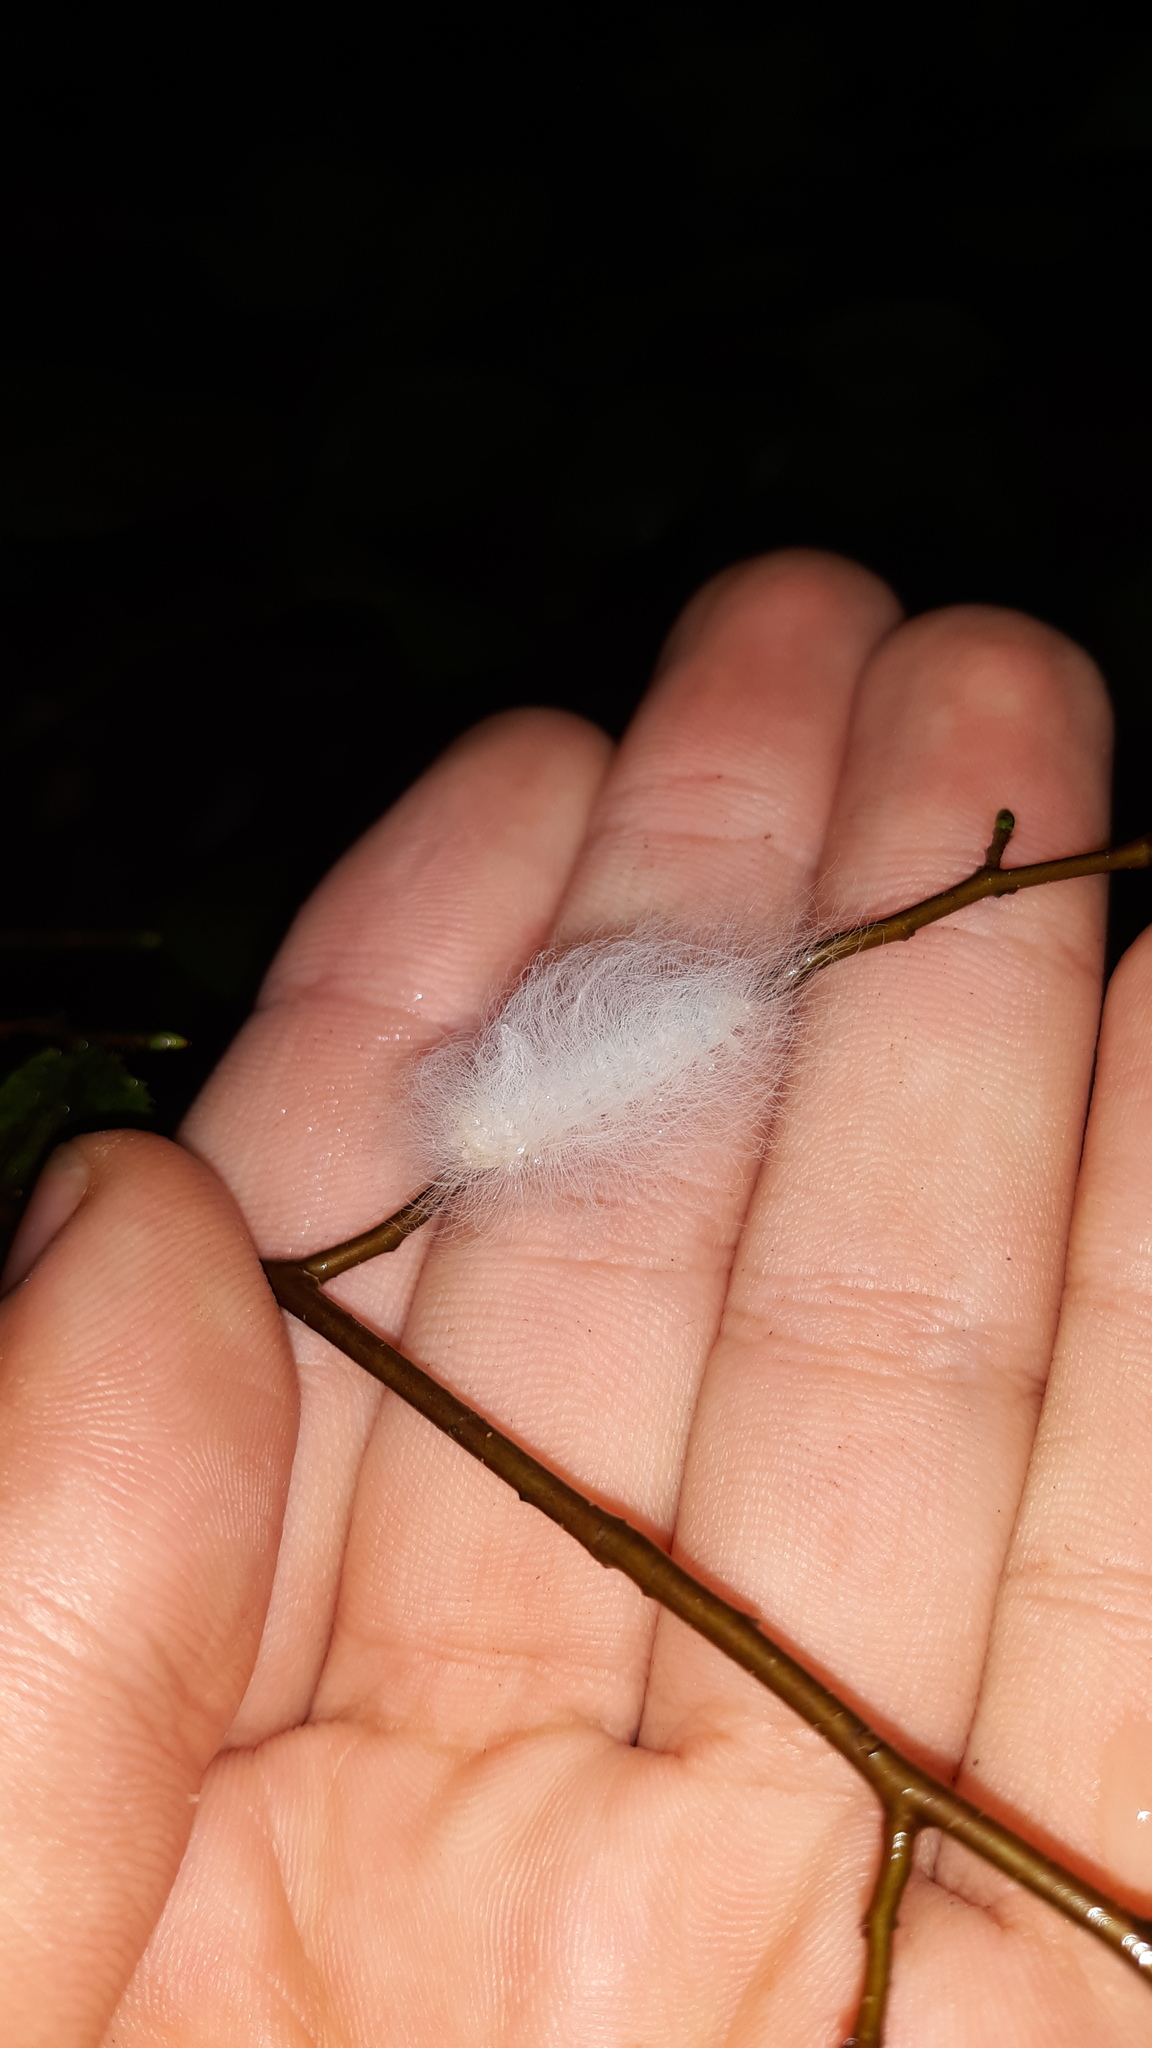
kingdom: Animalia
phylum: Arthropoda
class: Insecta
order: Lepidoptera
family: Megalopygidae
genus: Megalopyge
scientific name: Megalopyge crispata
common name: Black-waved flannel moth
